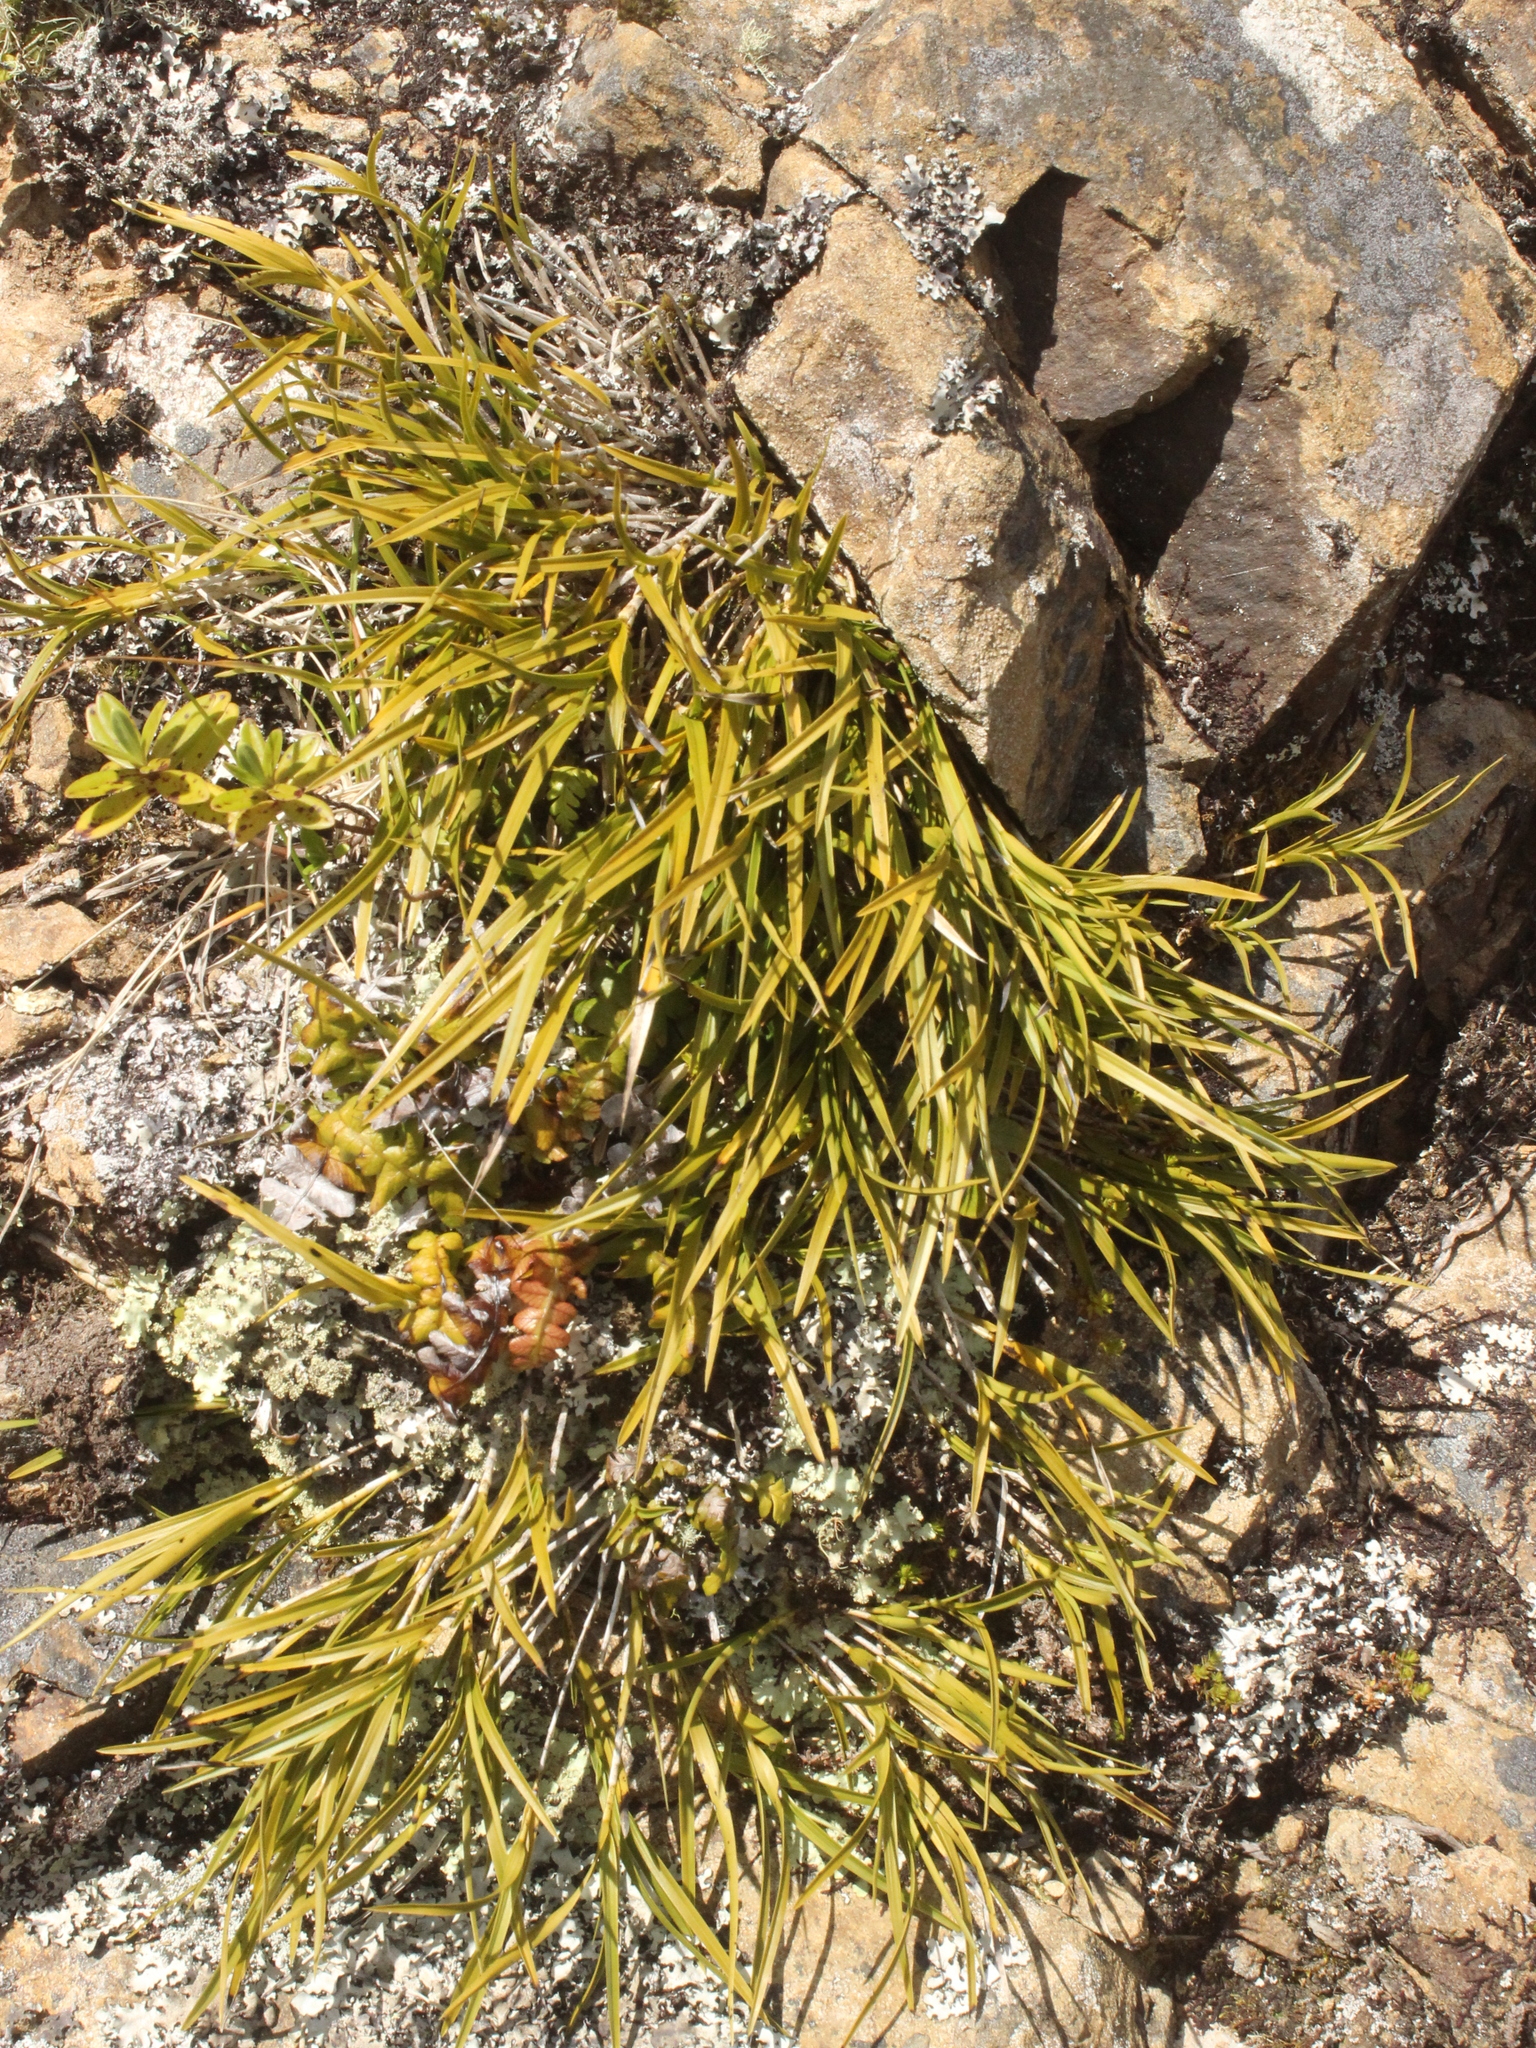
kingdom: Plantae
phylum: Tracheophyta
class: Liliopsida
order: Asparagales
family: Orchidaceae
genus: Earina
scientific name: Earina mucronata
